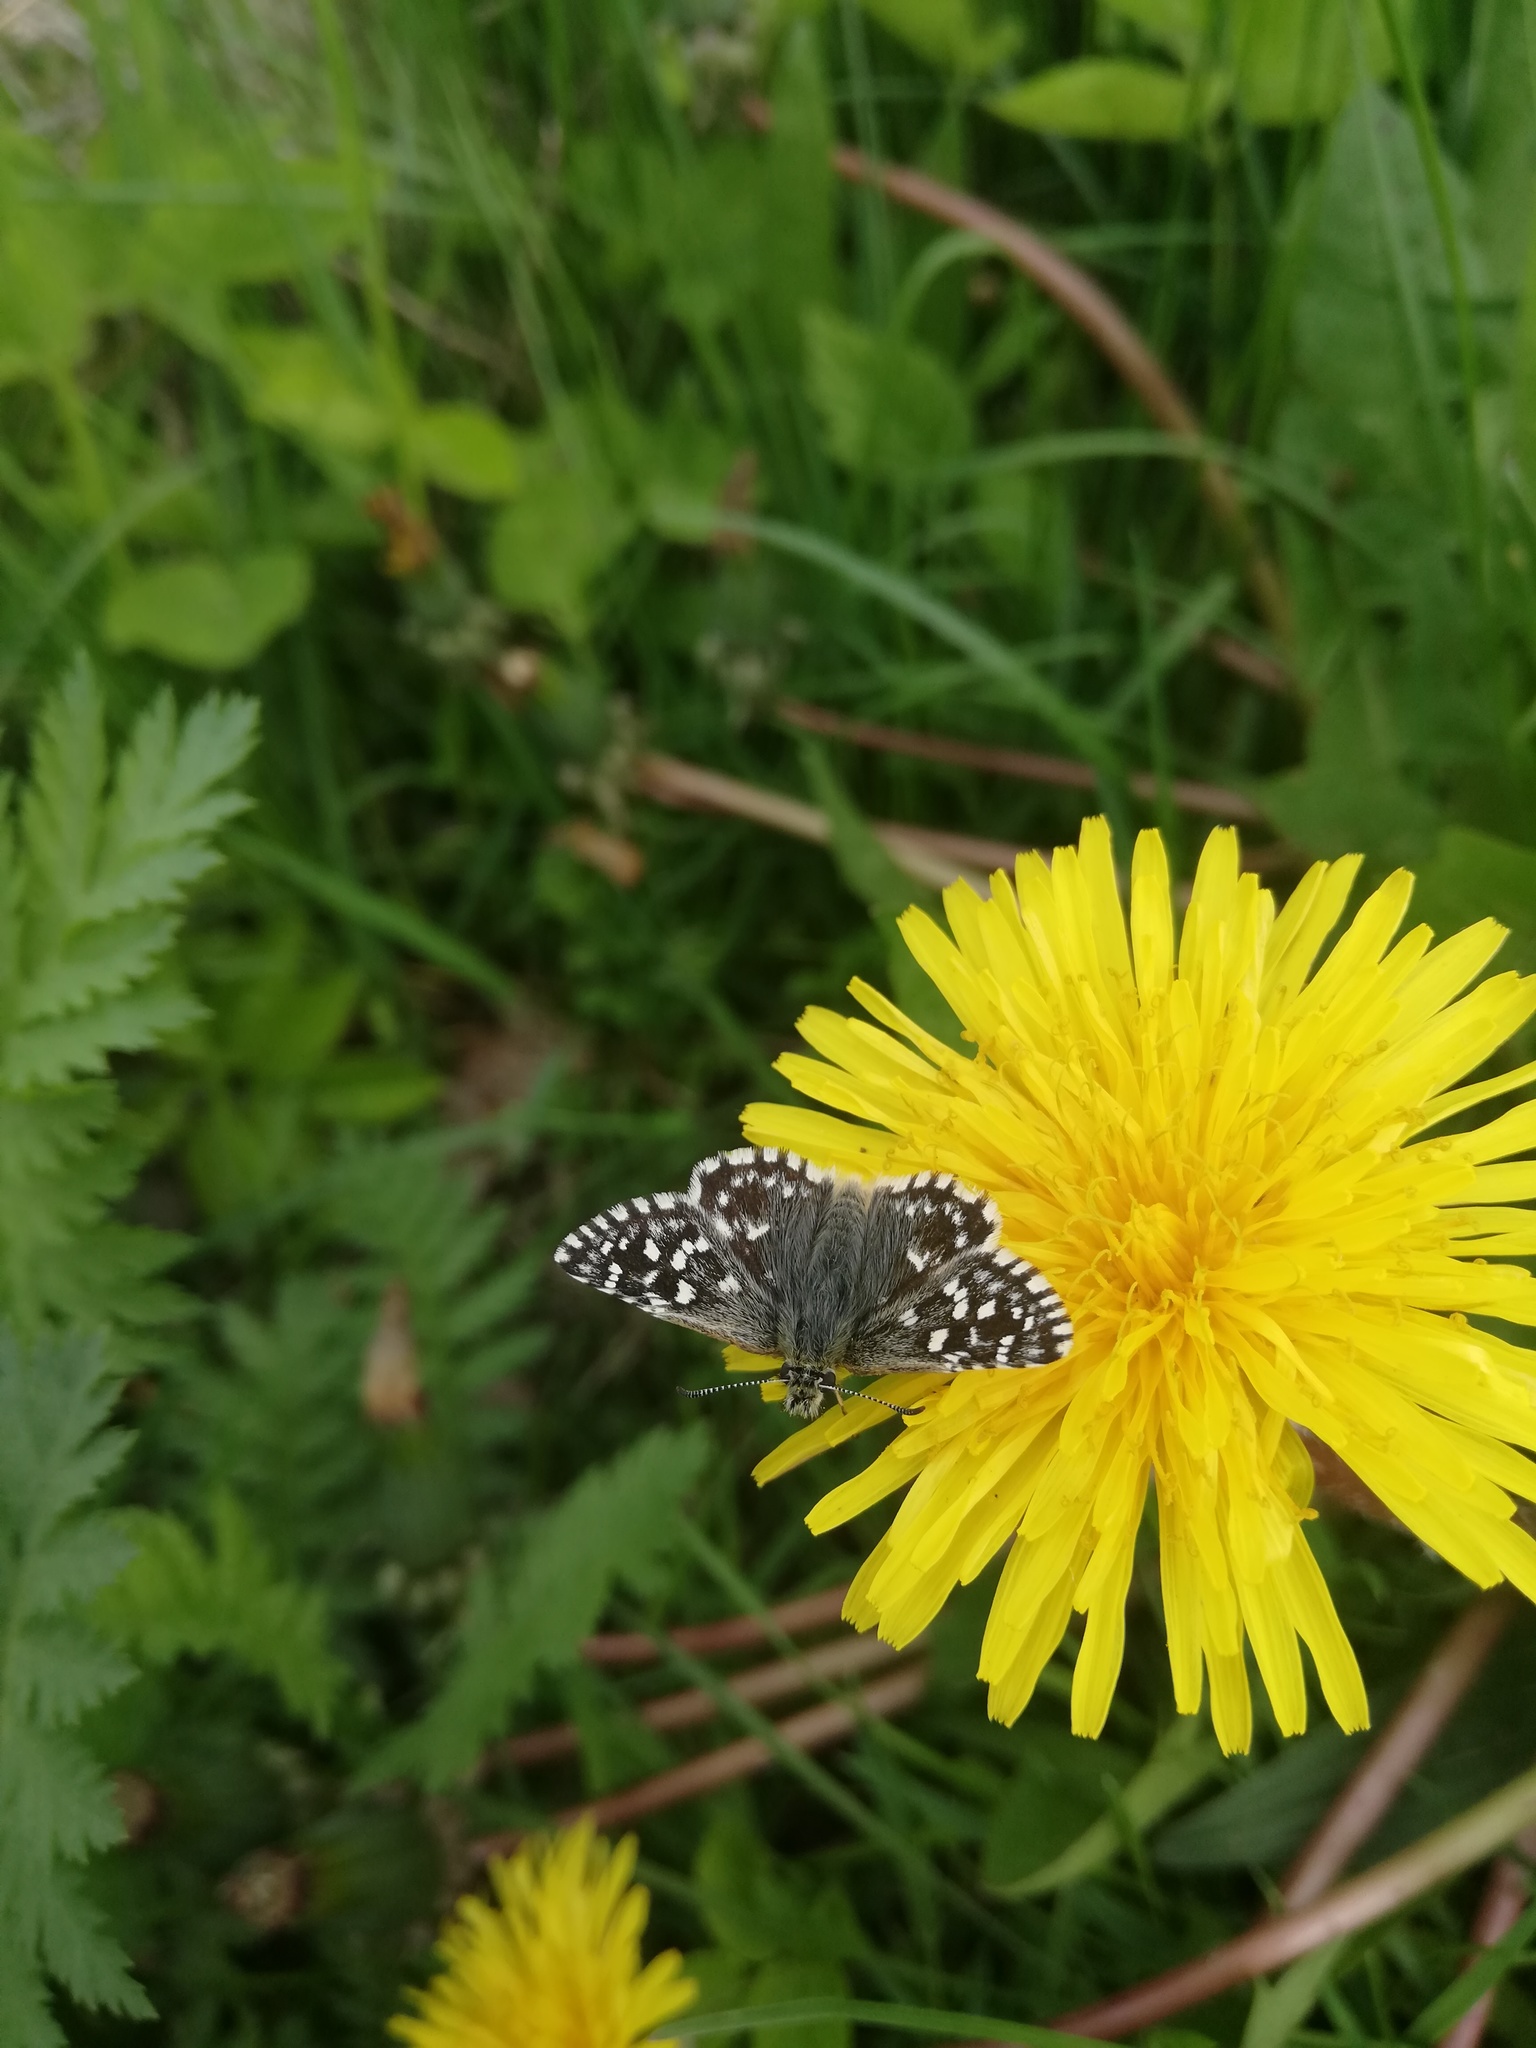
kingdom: Animalia
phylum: Arthropoda
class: Insecta
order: Lepidoptera
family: Hesperiidae
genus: Pyrgus
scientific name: Pyrgus malvae
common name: Grizzled skipper
